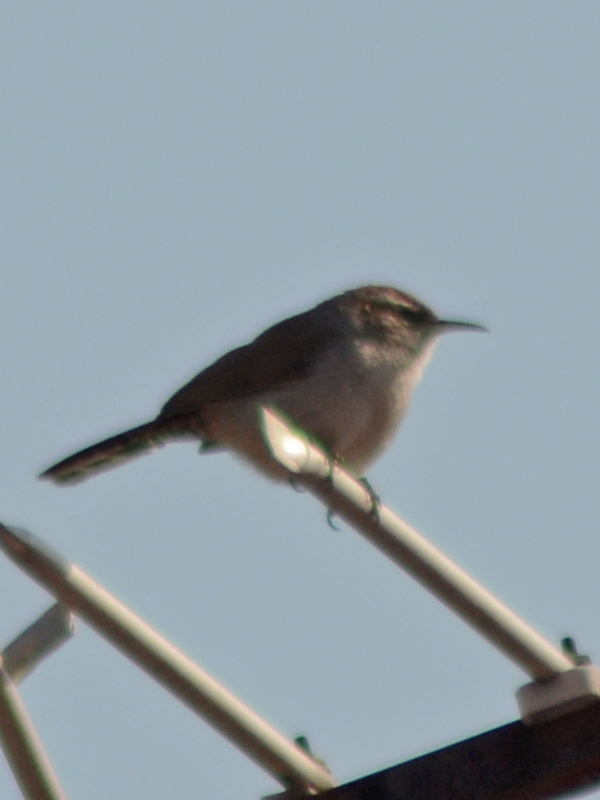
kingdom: Animalia
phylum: Chordata
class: Aves
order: Passeriformes
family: Troglodytidae
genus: Thryomanes
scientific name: Thryomanes bewickii
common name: Bewick's wren
